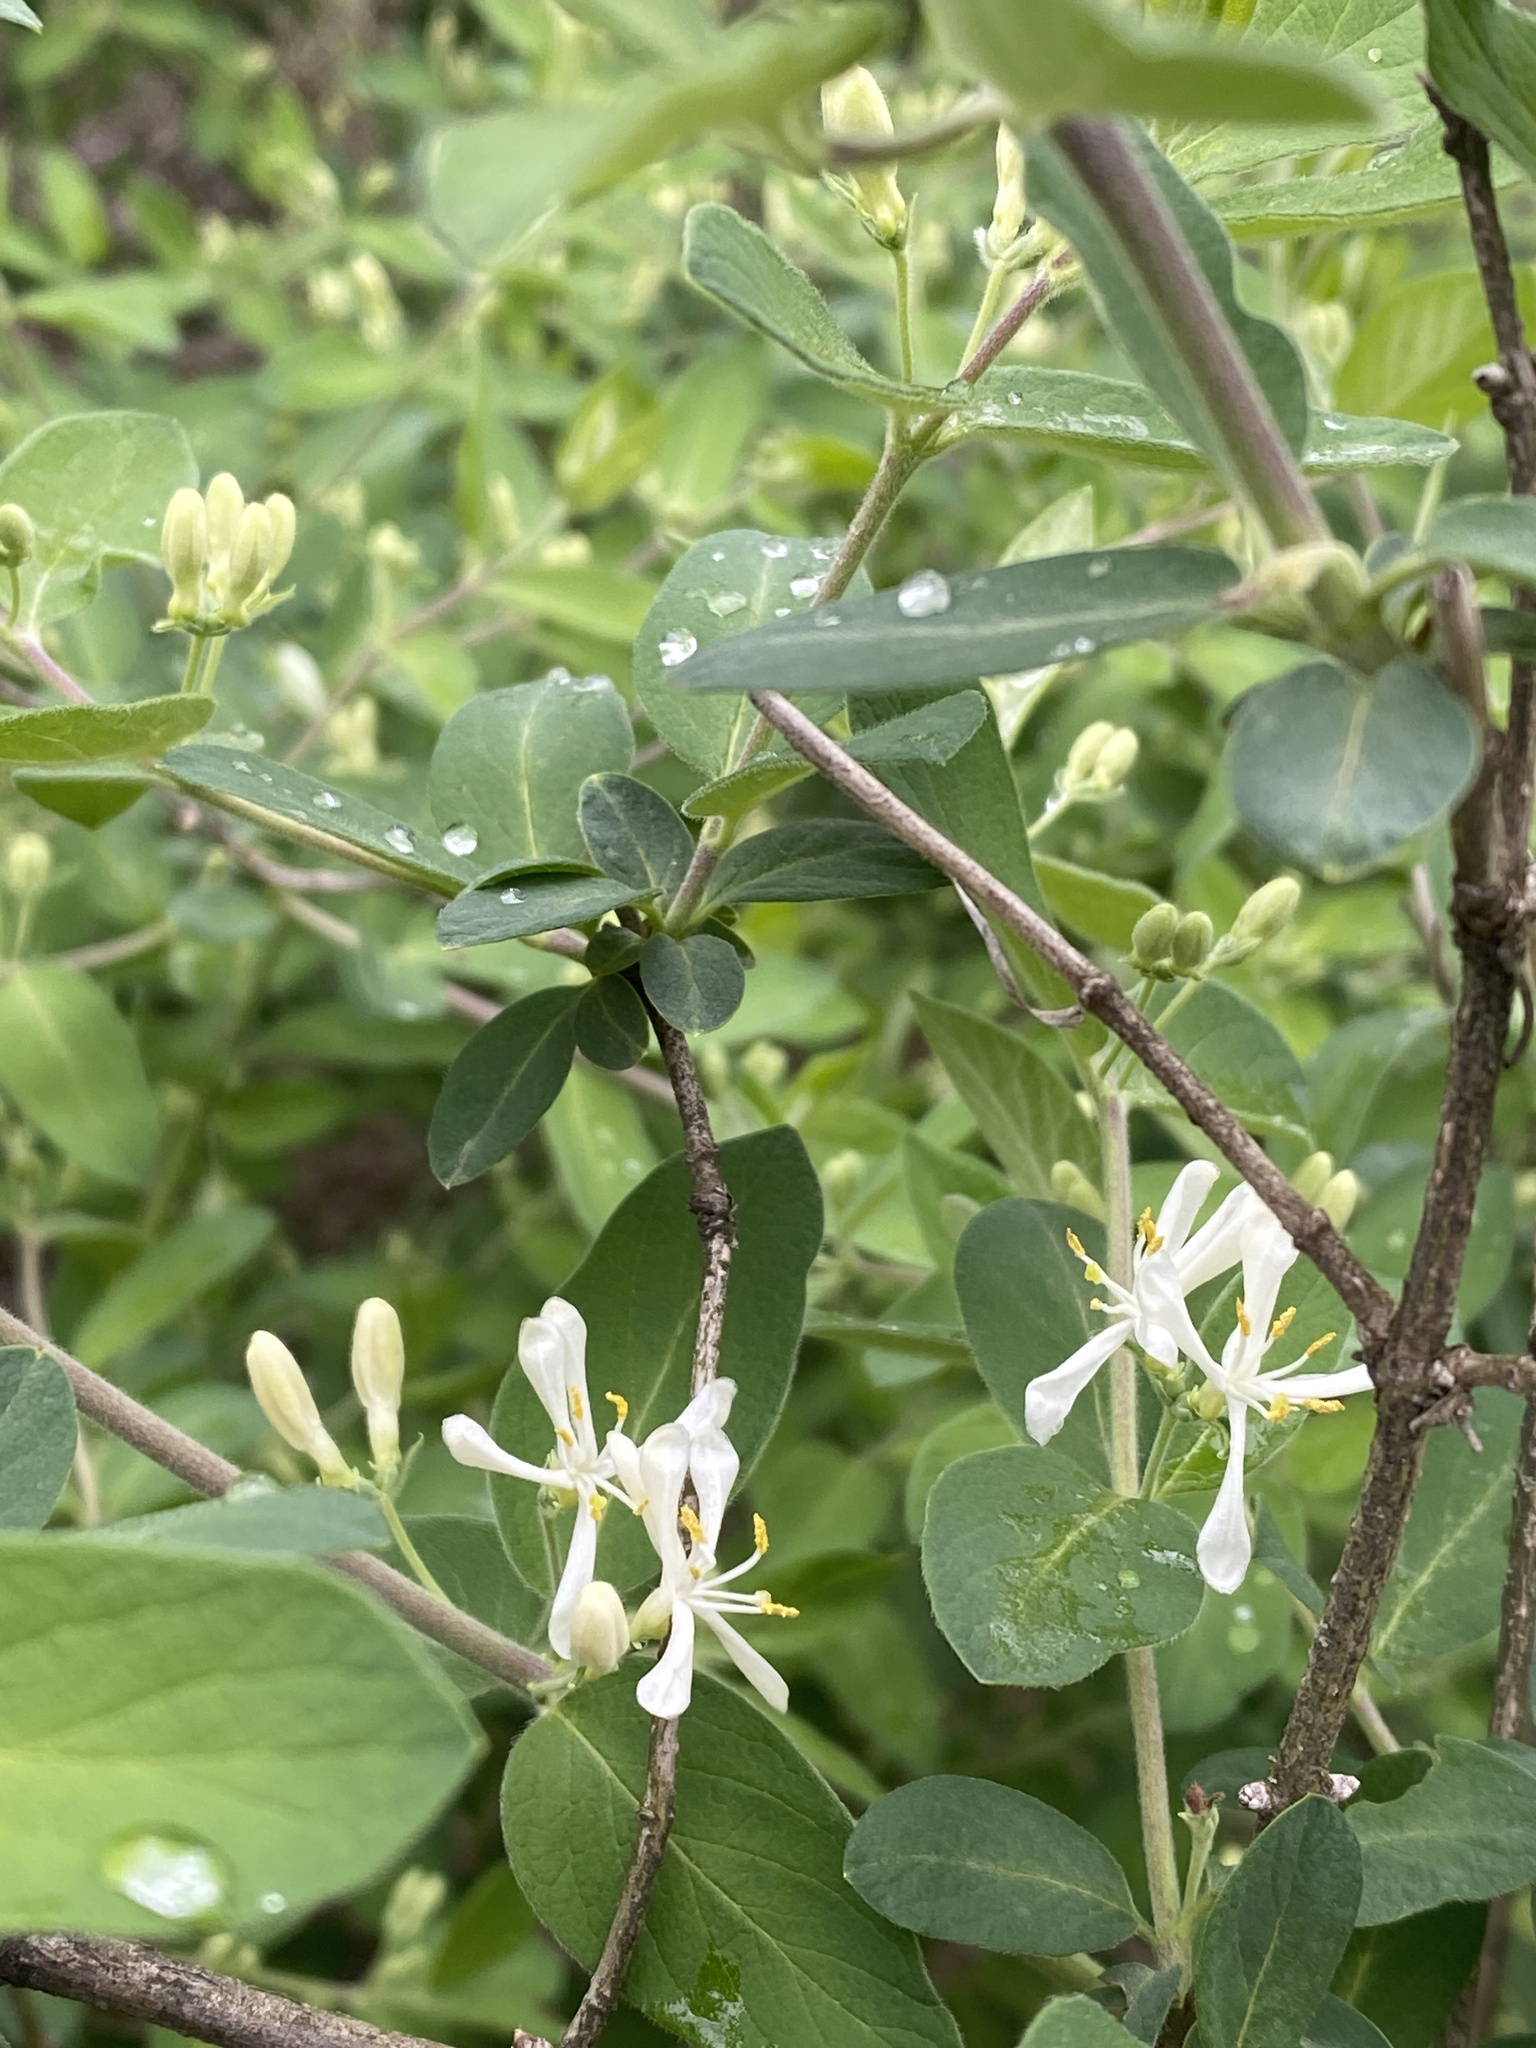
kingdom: Plantae
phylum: Tracheophyta
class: Magnoliopsida
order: Dipsacales
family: Caprifoliaceae
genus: Lonicera
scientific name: Lonicera morrowii
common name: Morrow's honeysuckle
